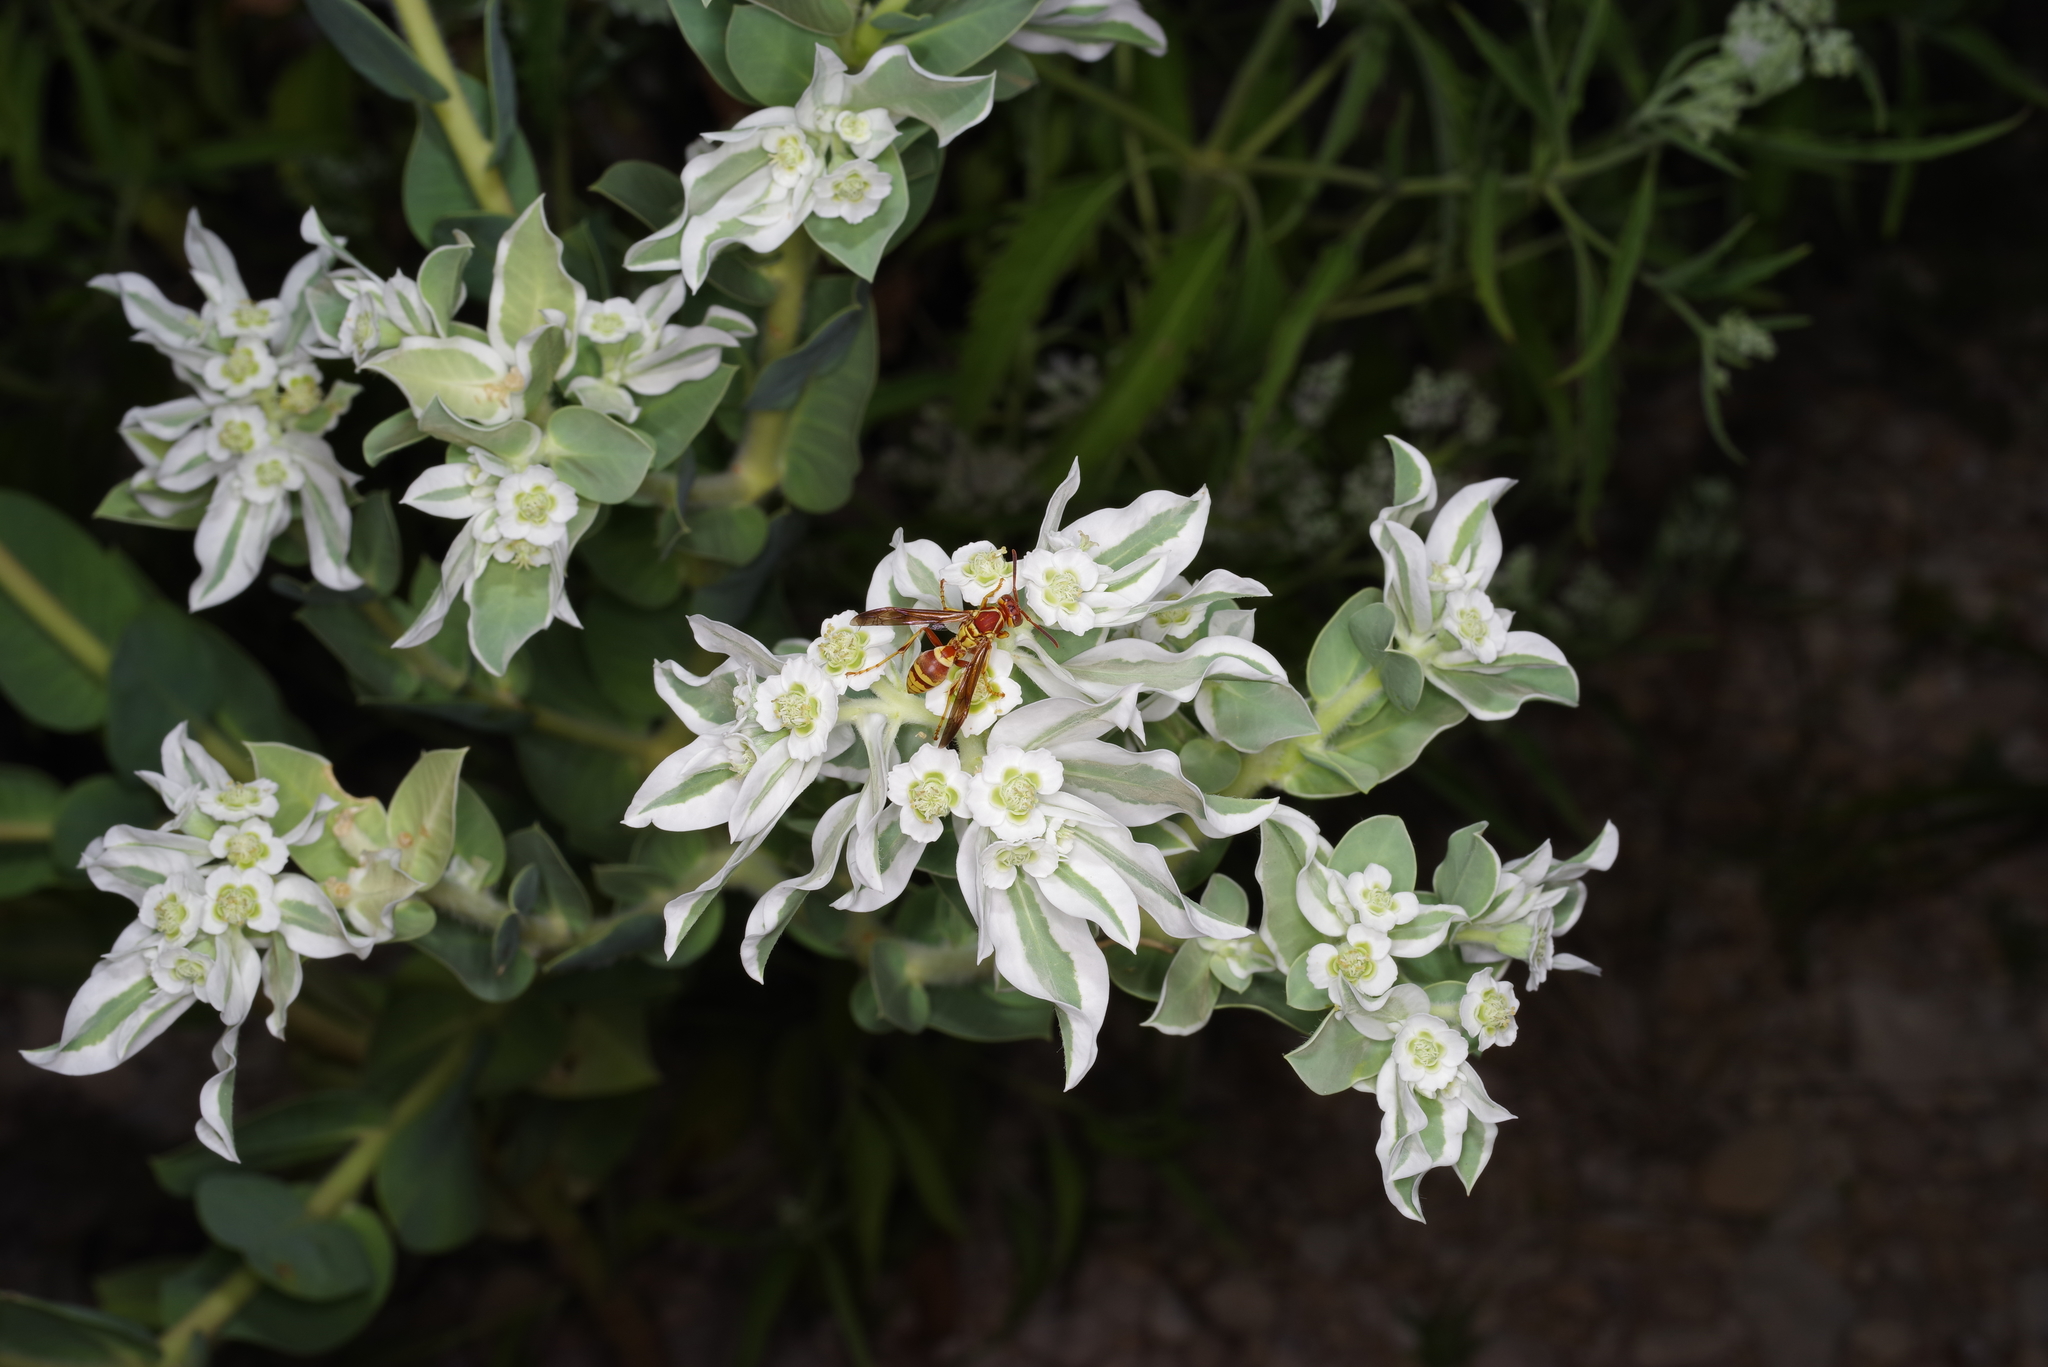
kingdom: Plantae
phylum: Tracheophyta
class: Magnoliopsida
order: Malpighiales
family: Euphorbiaceae
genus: Euphorbia
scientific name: Euphorbia marginata
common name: Ghostweed
